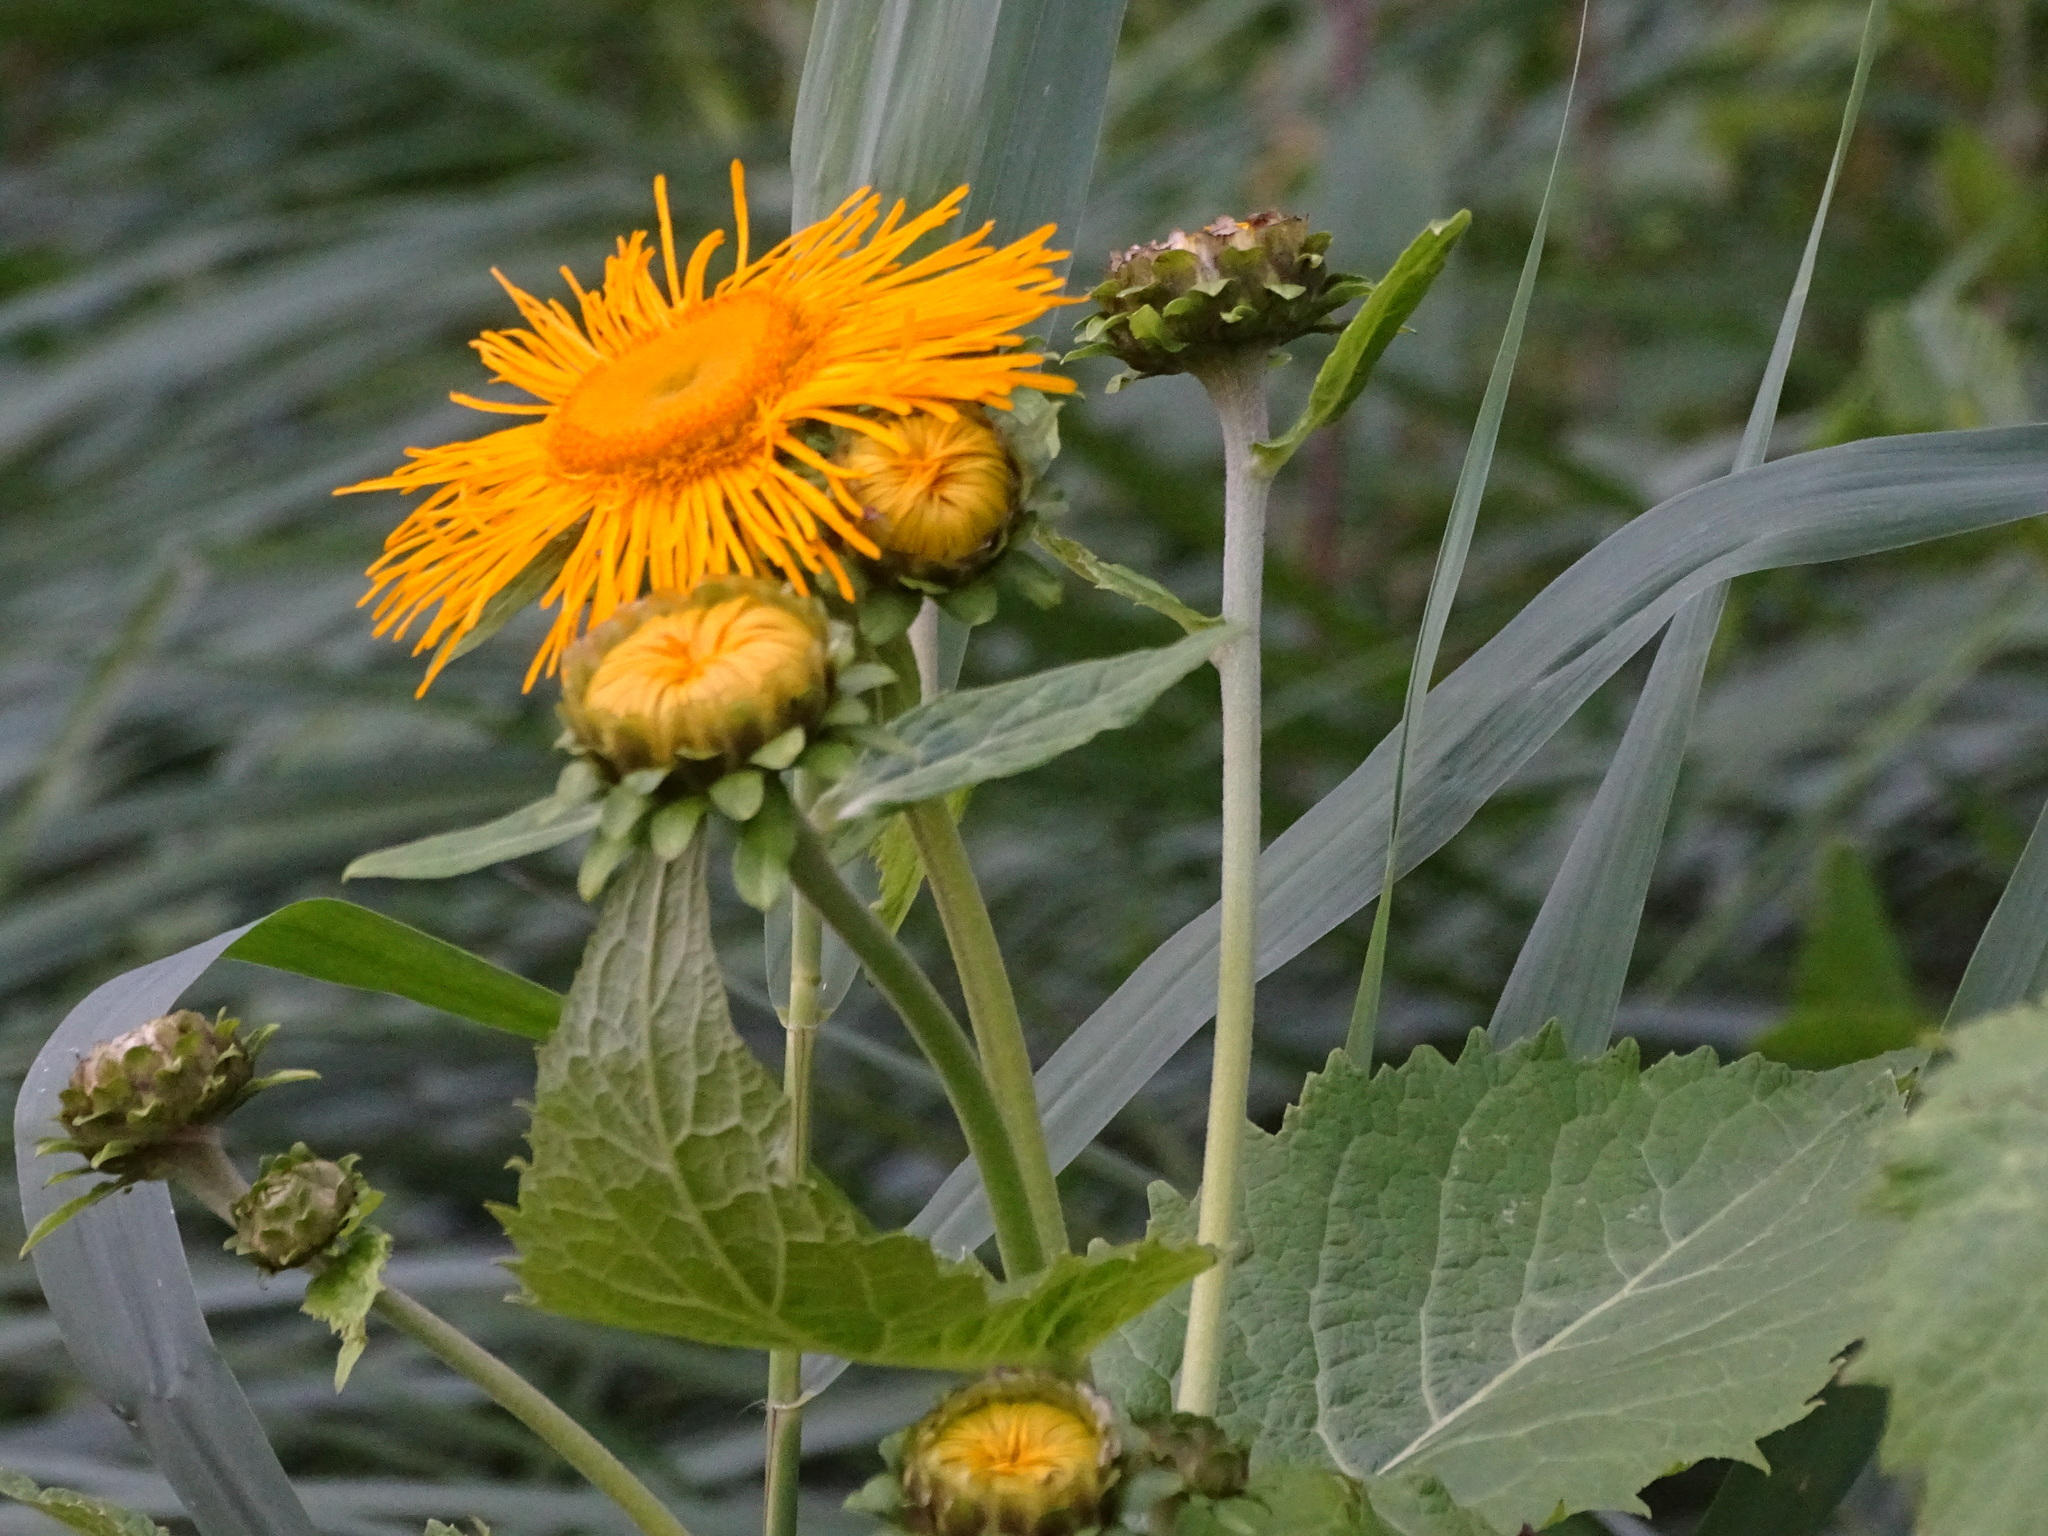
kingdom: Plantae
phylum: Tracheophyta
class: Magnoliopsida
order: Asterales
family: Asteraceae
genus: Telekia
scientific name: Telekia speciosa
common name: Yellow oxeye
